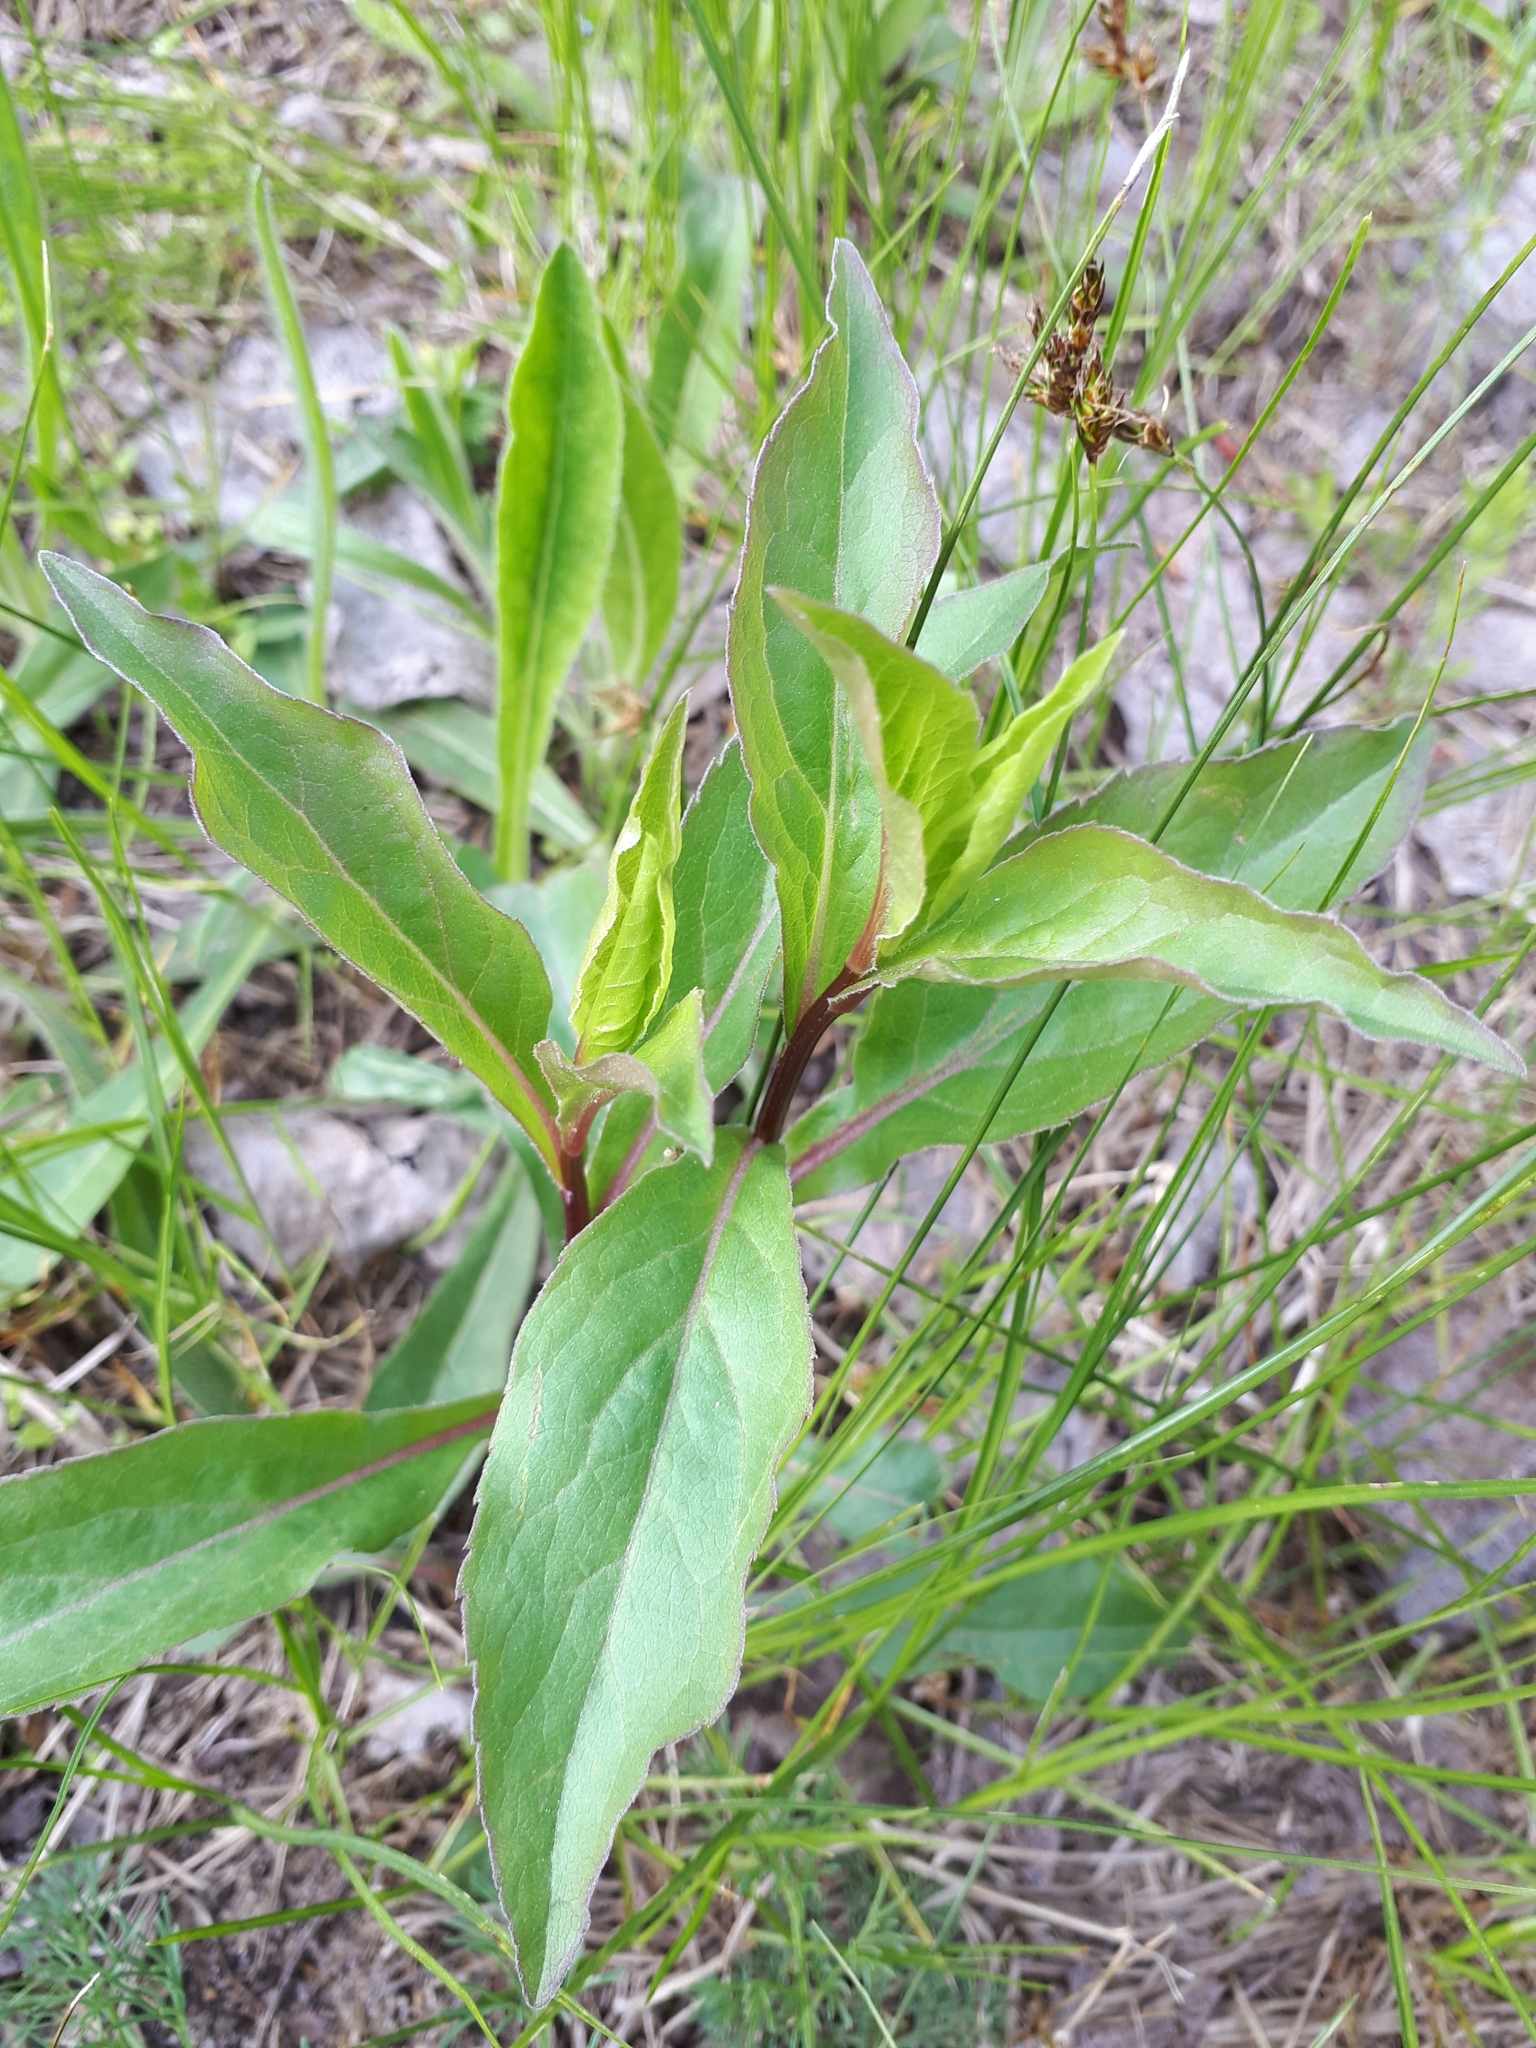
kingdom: Plantae
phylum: Tracheophyta
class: Magnoliopsida
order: Asterales
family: Asteraceae
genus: Solidago
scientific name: Solidago virgaurea
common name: Goldenrod
